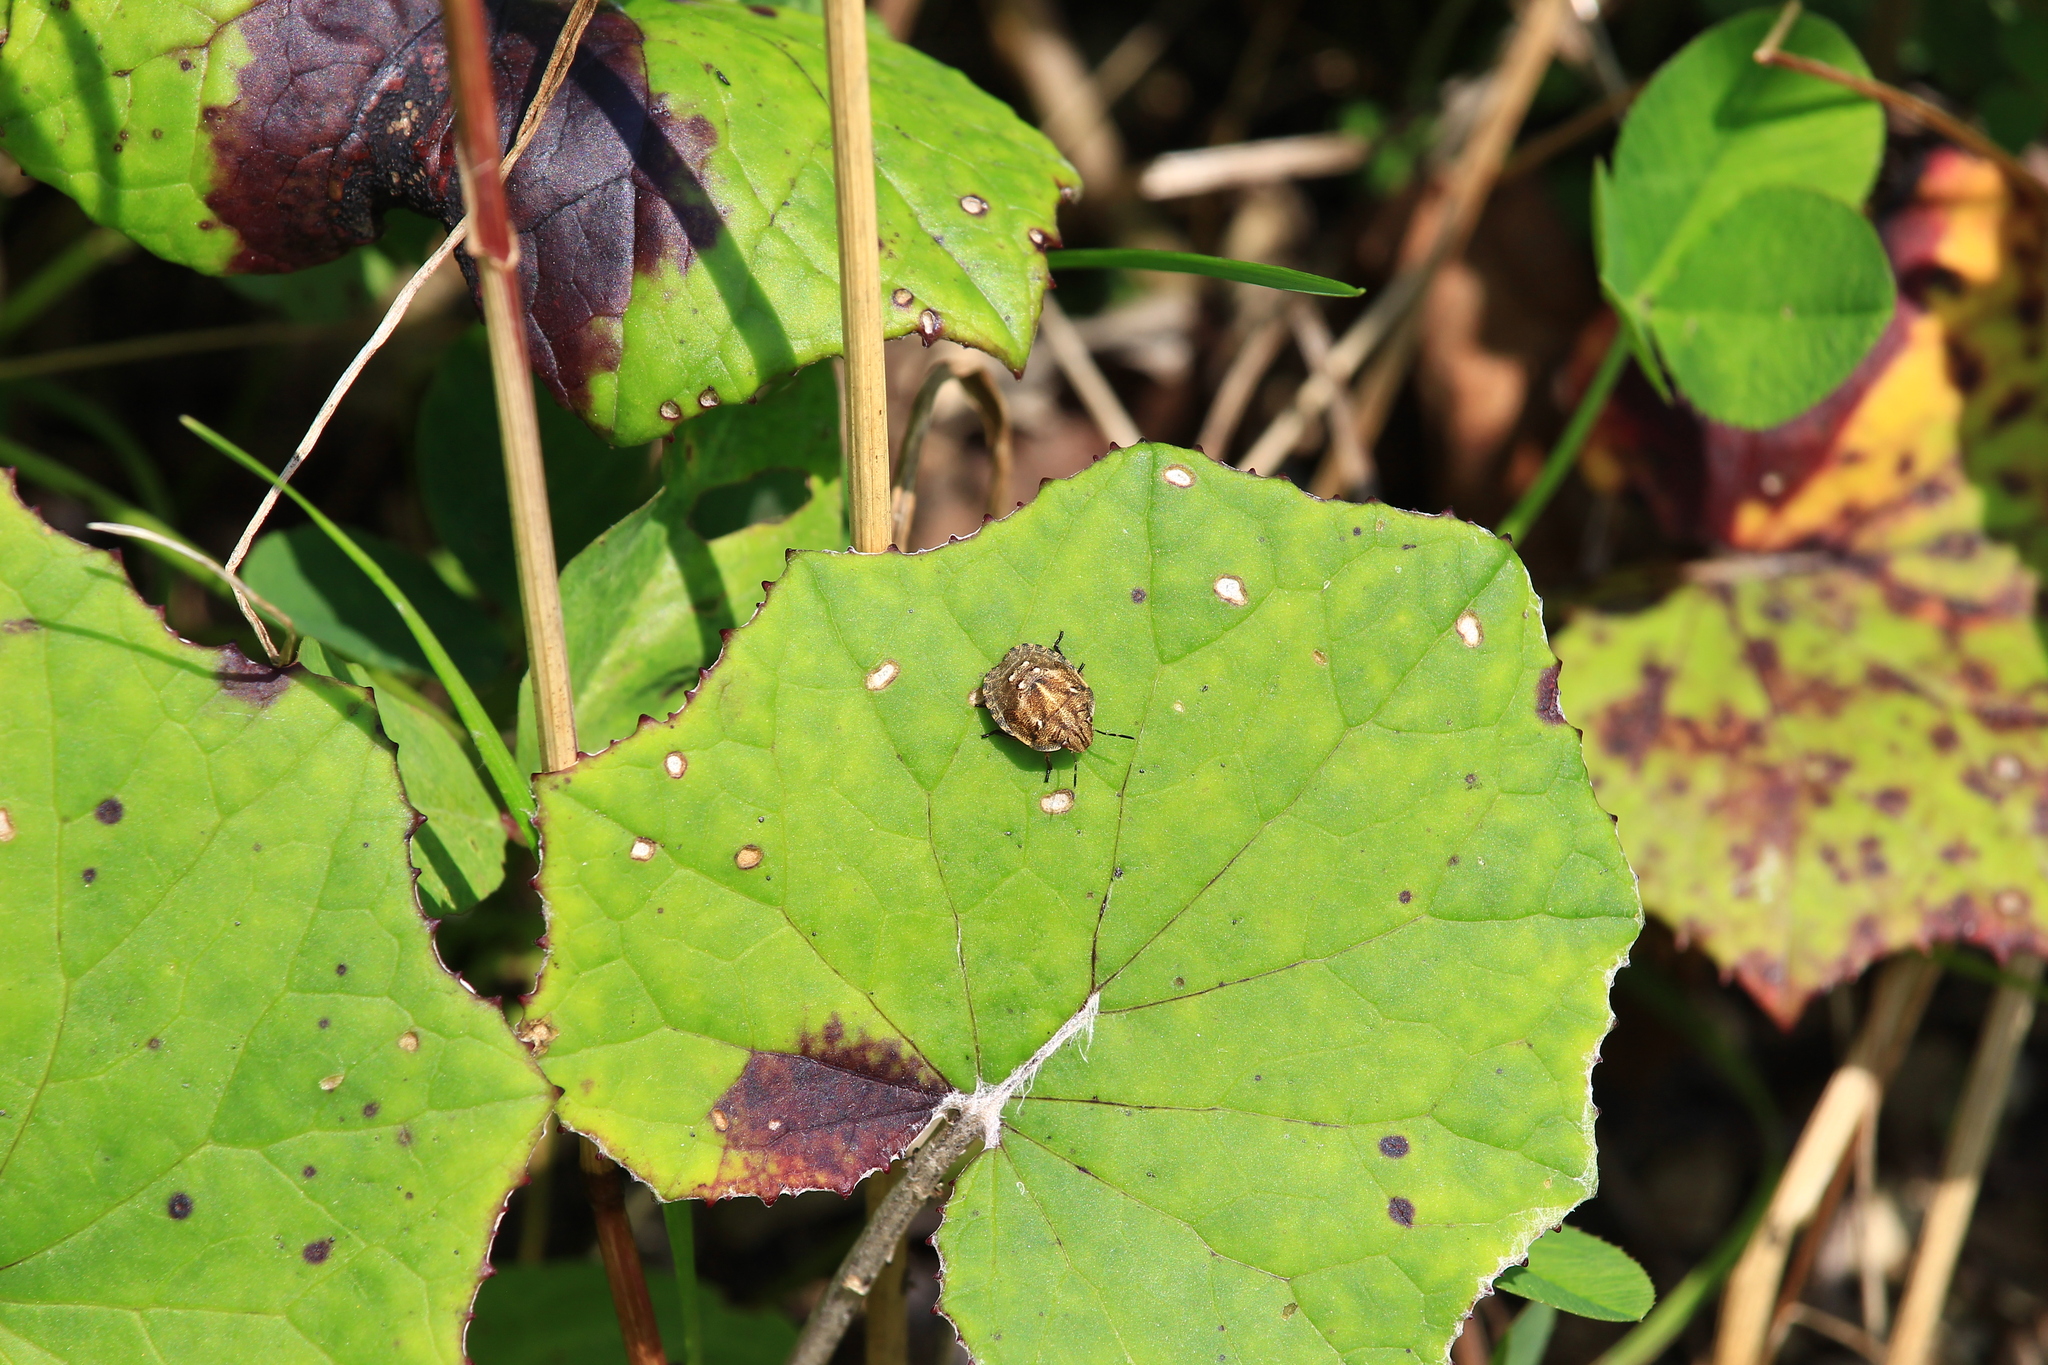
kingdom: Animalia
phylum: Arthropoda
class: Insecta
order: Hemiptera
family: Scutelleridae
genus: Eurygaster
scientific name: Eurygaster testudinaria
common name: Tortoise bug
